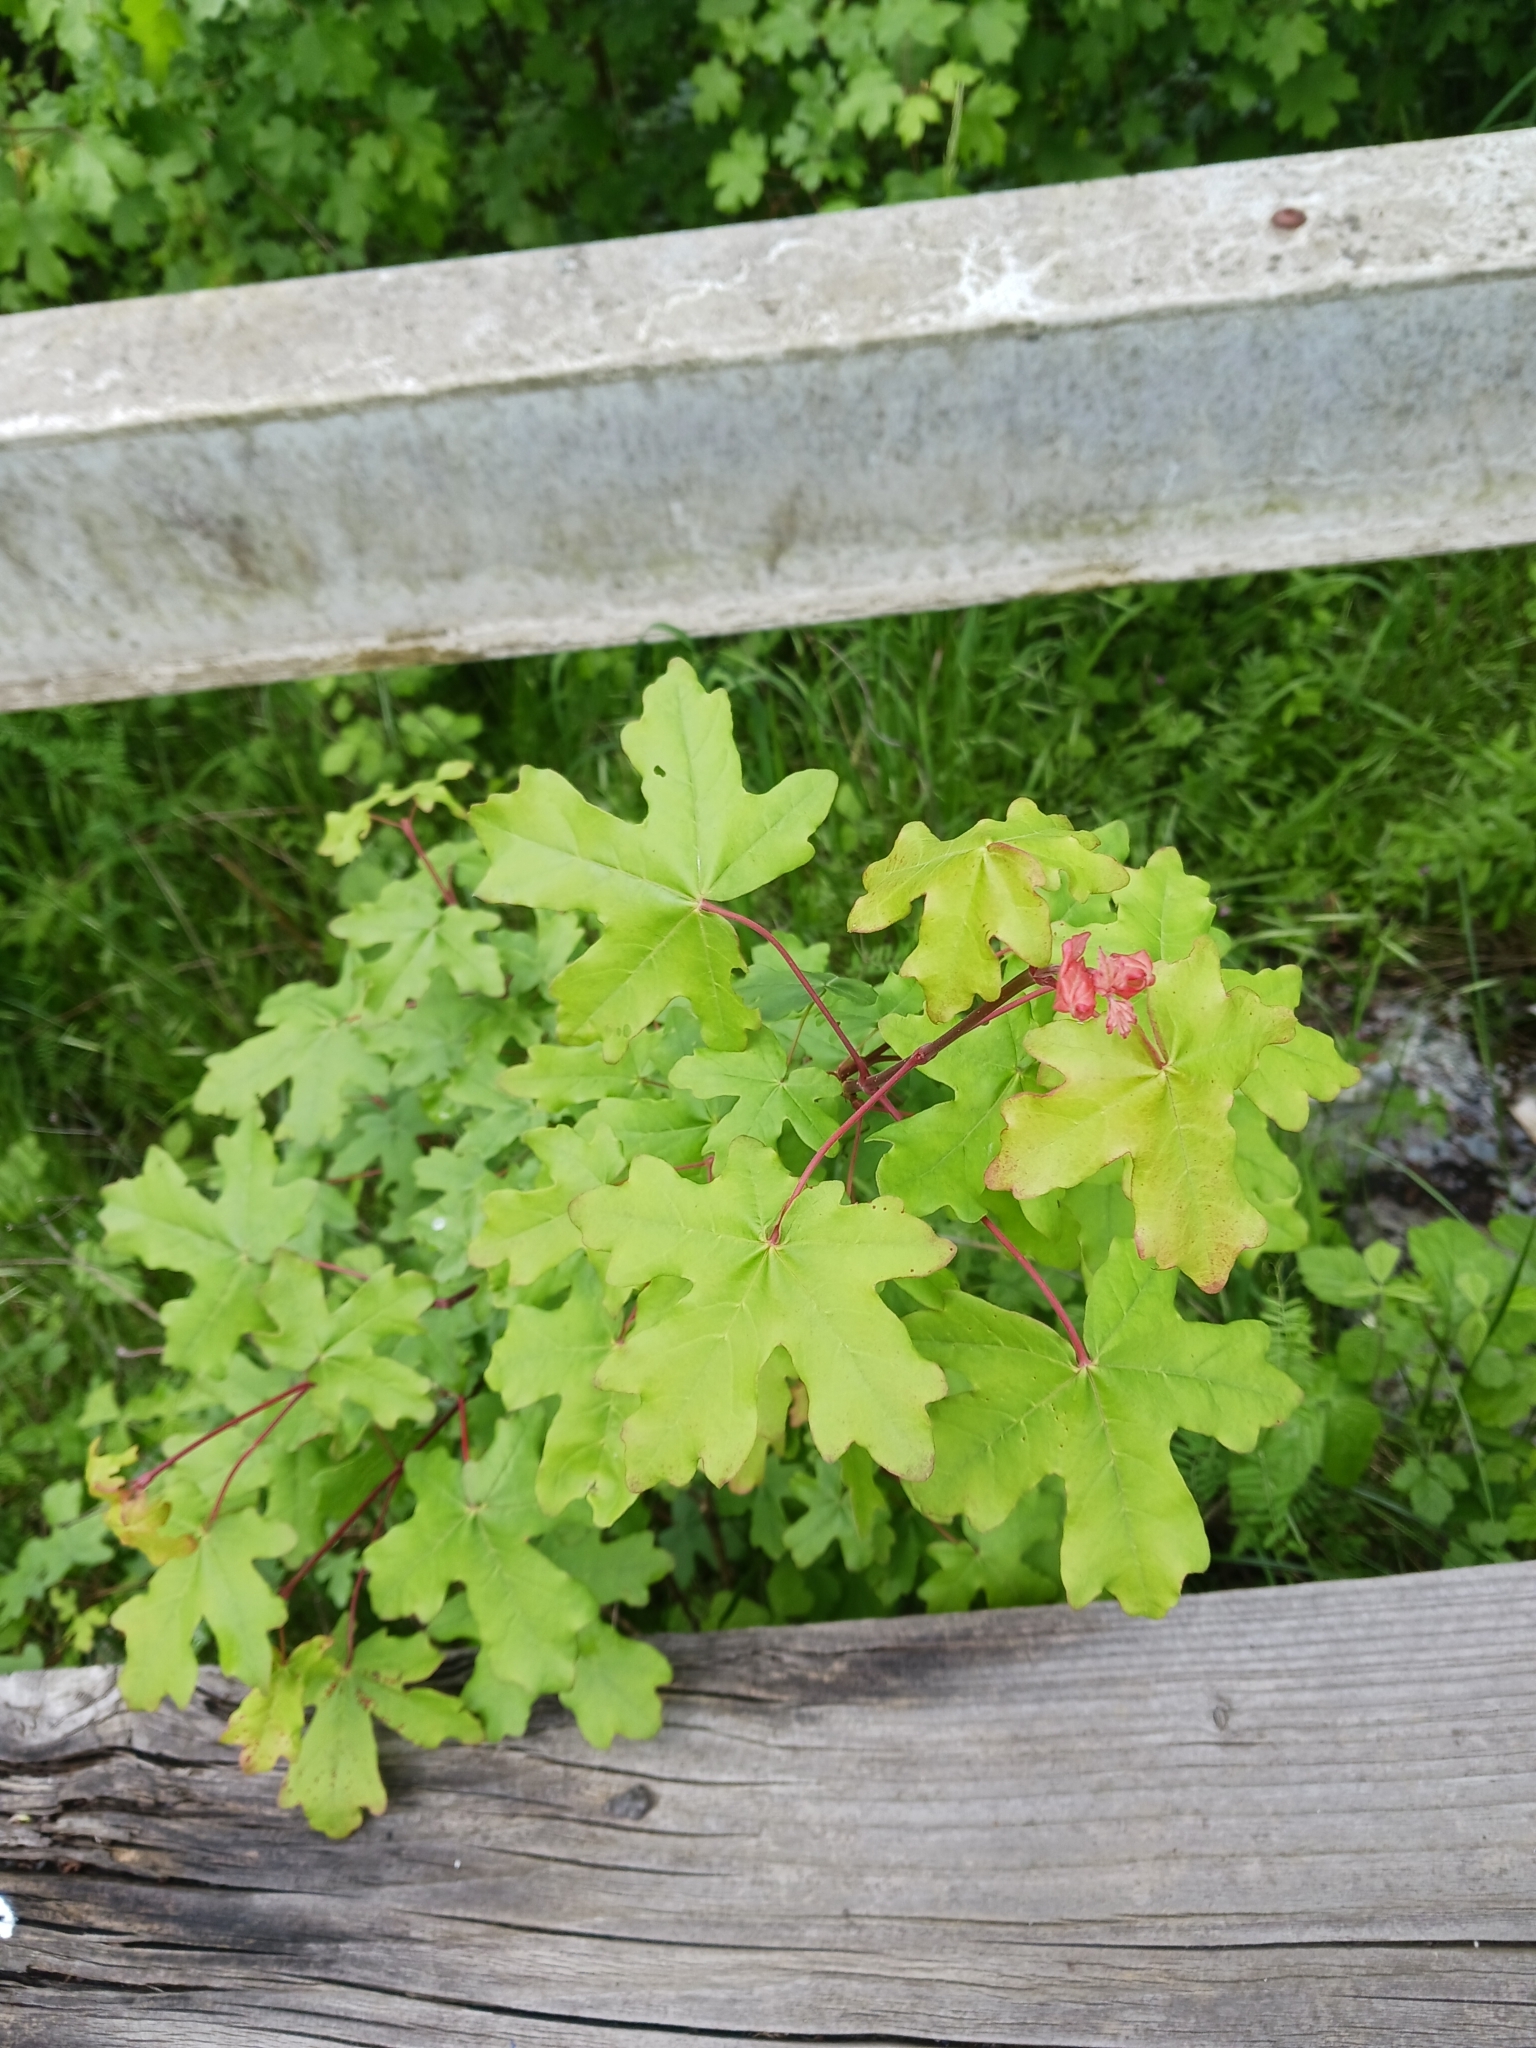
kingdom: Plantae
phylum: Tracheophyta
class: Magnoliopsida
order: Sapindales
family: Sapindaceae
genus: Acer
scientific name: Acer campestre
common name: Field maple
